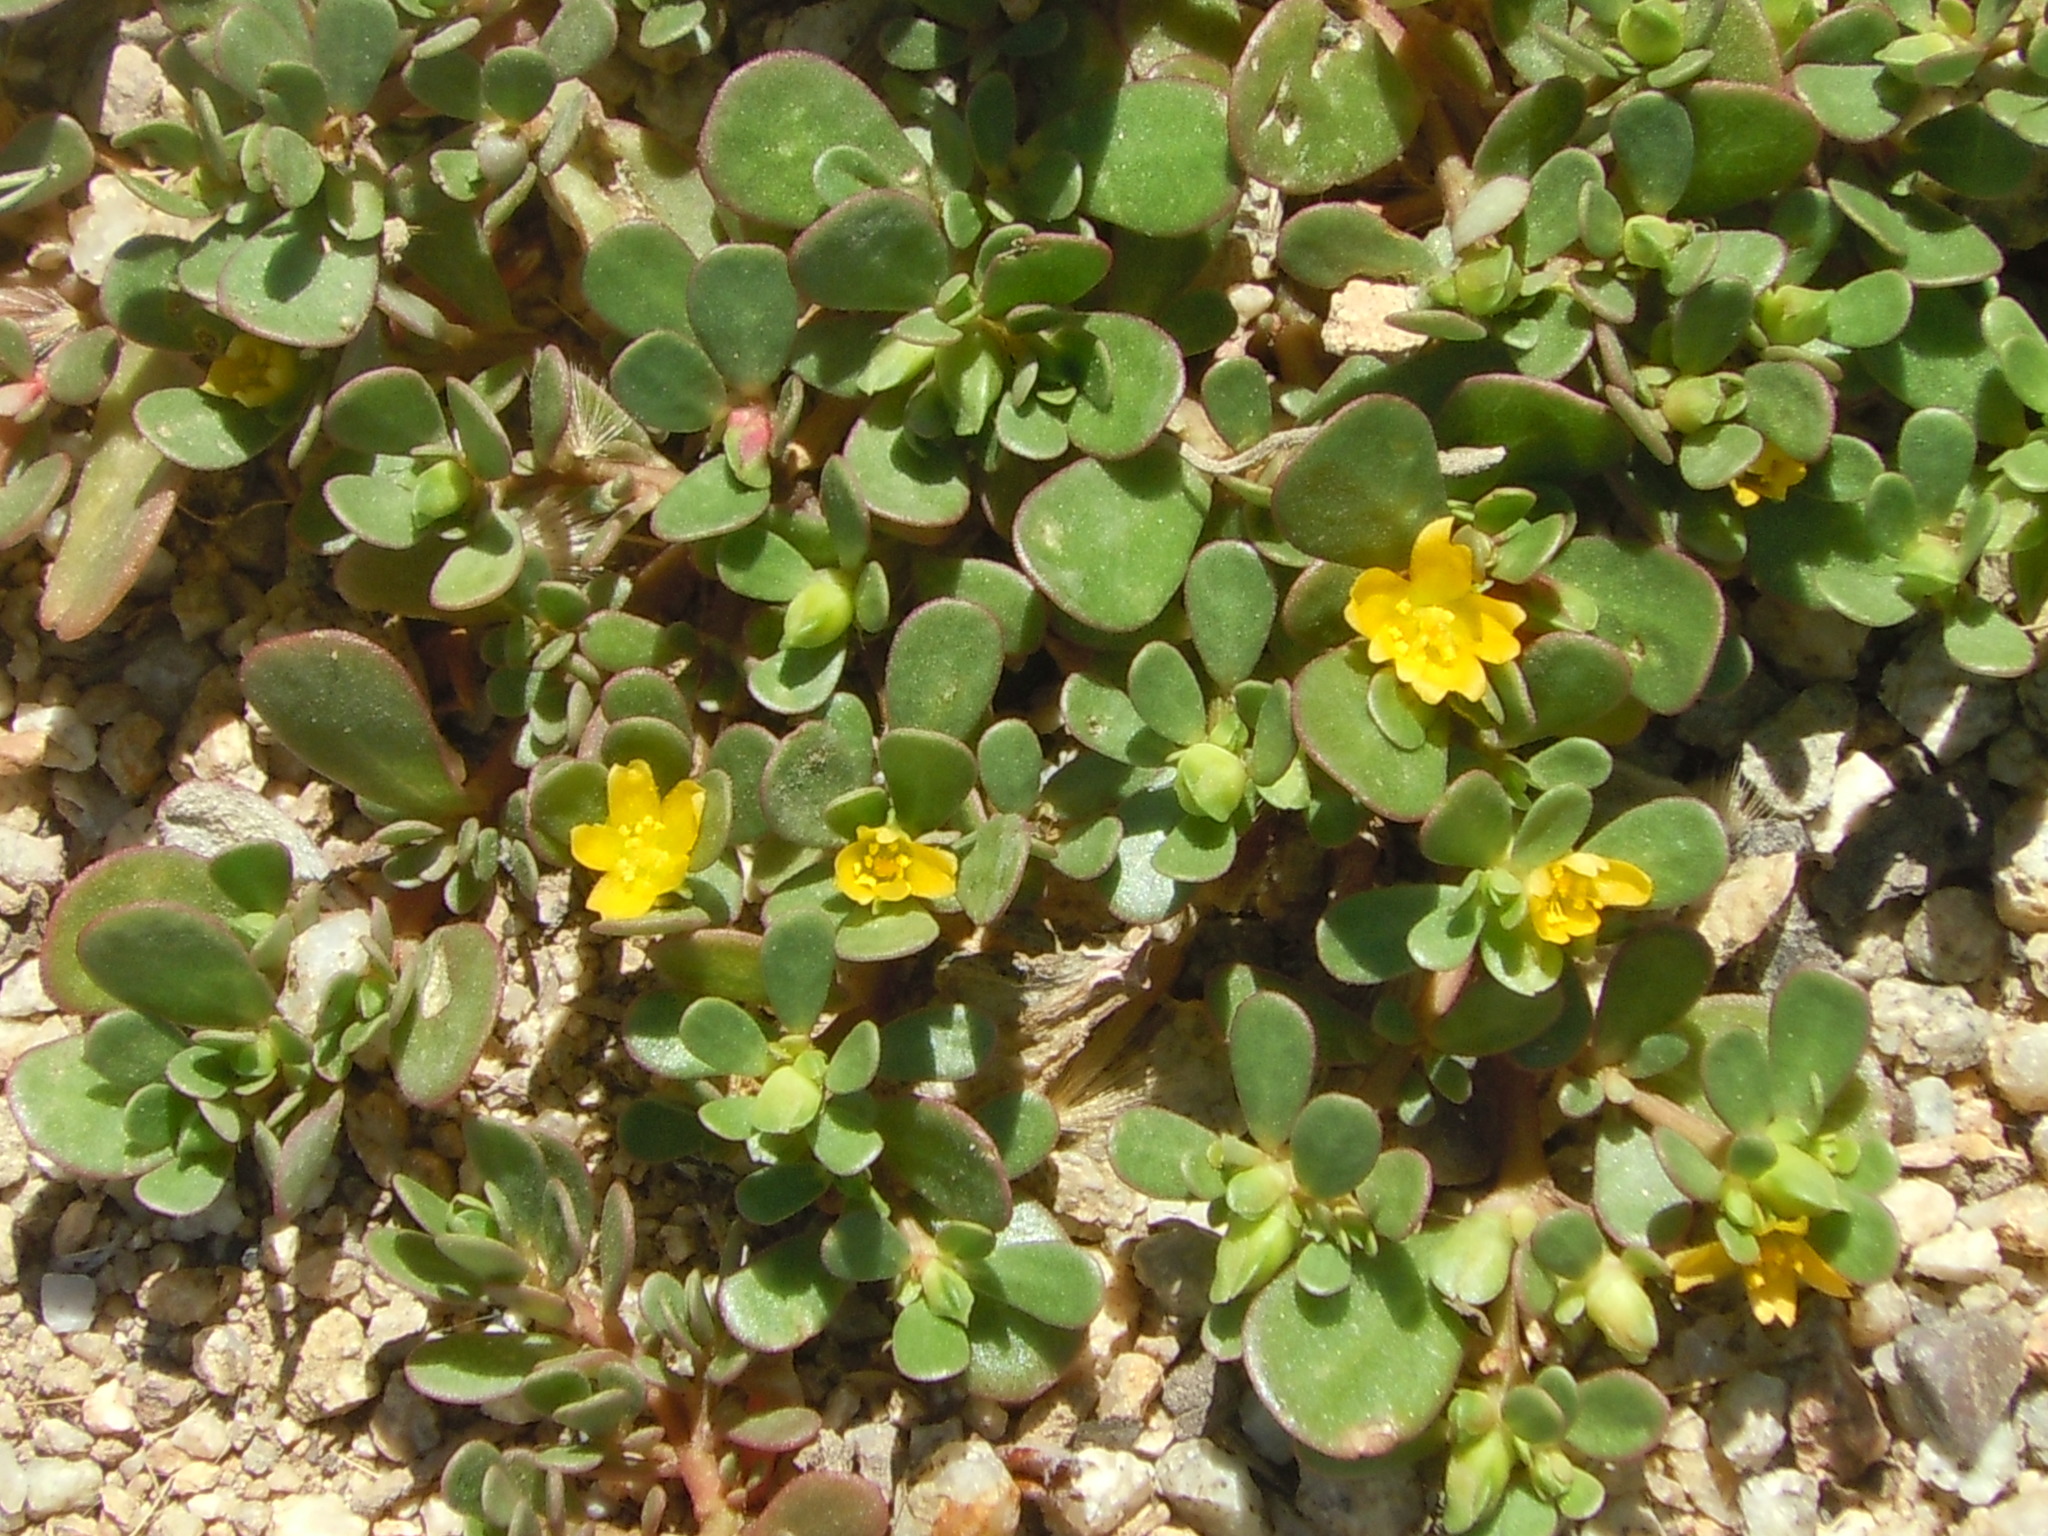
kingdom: Plantae
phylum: Tracheophyta
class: Magnoliopsida
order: Caryophyllales
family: Portulacaceae
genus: Portulaca
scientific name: Portulaca oleracea
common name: Common purslane
